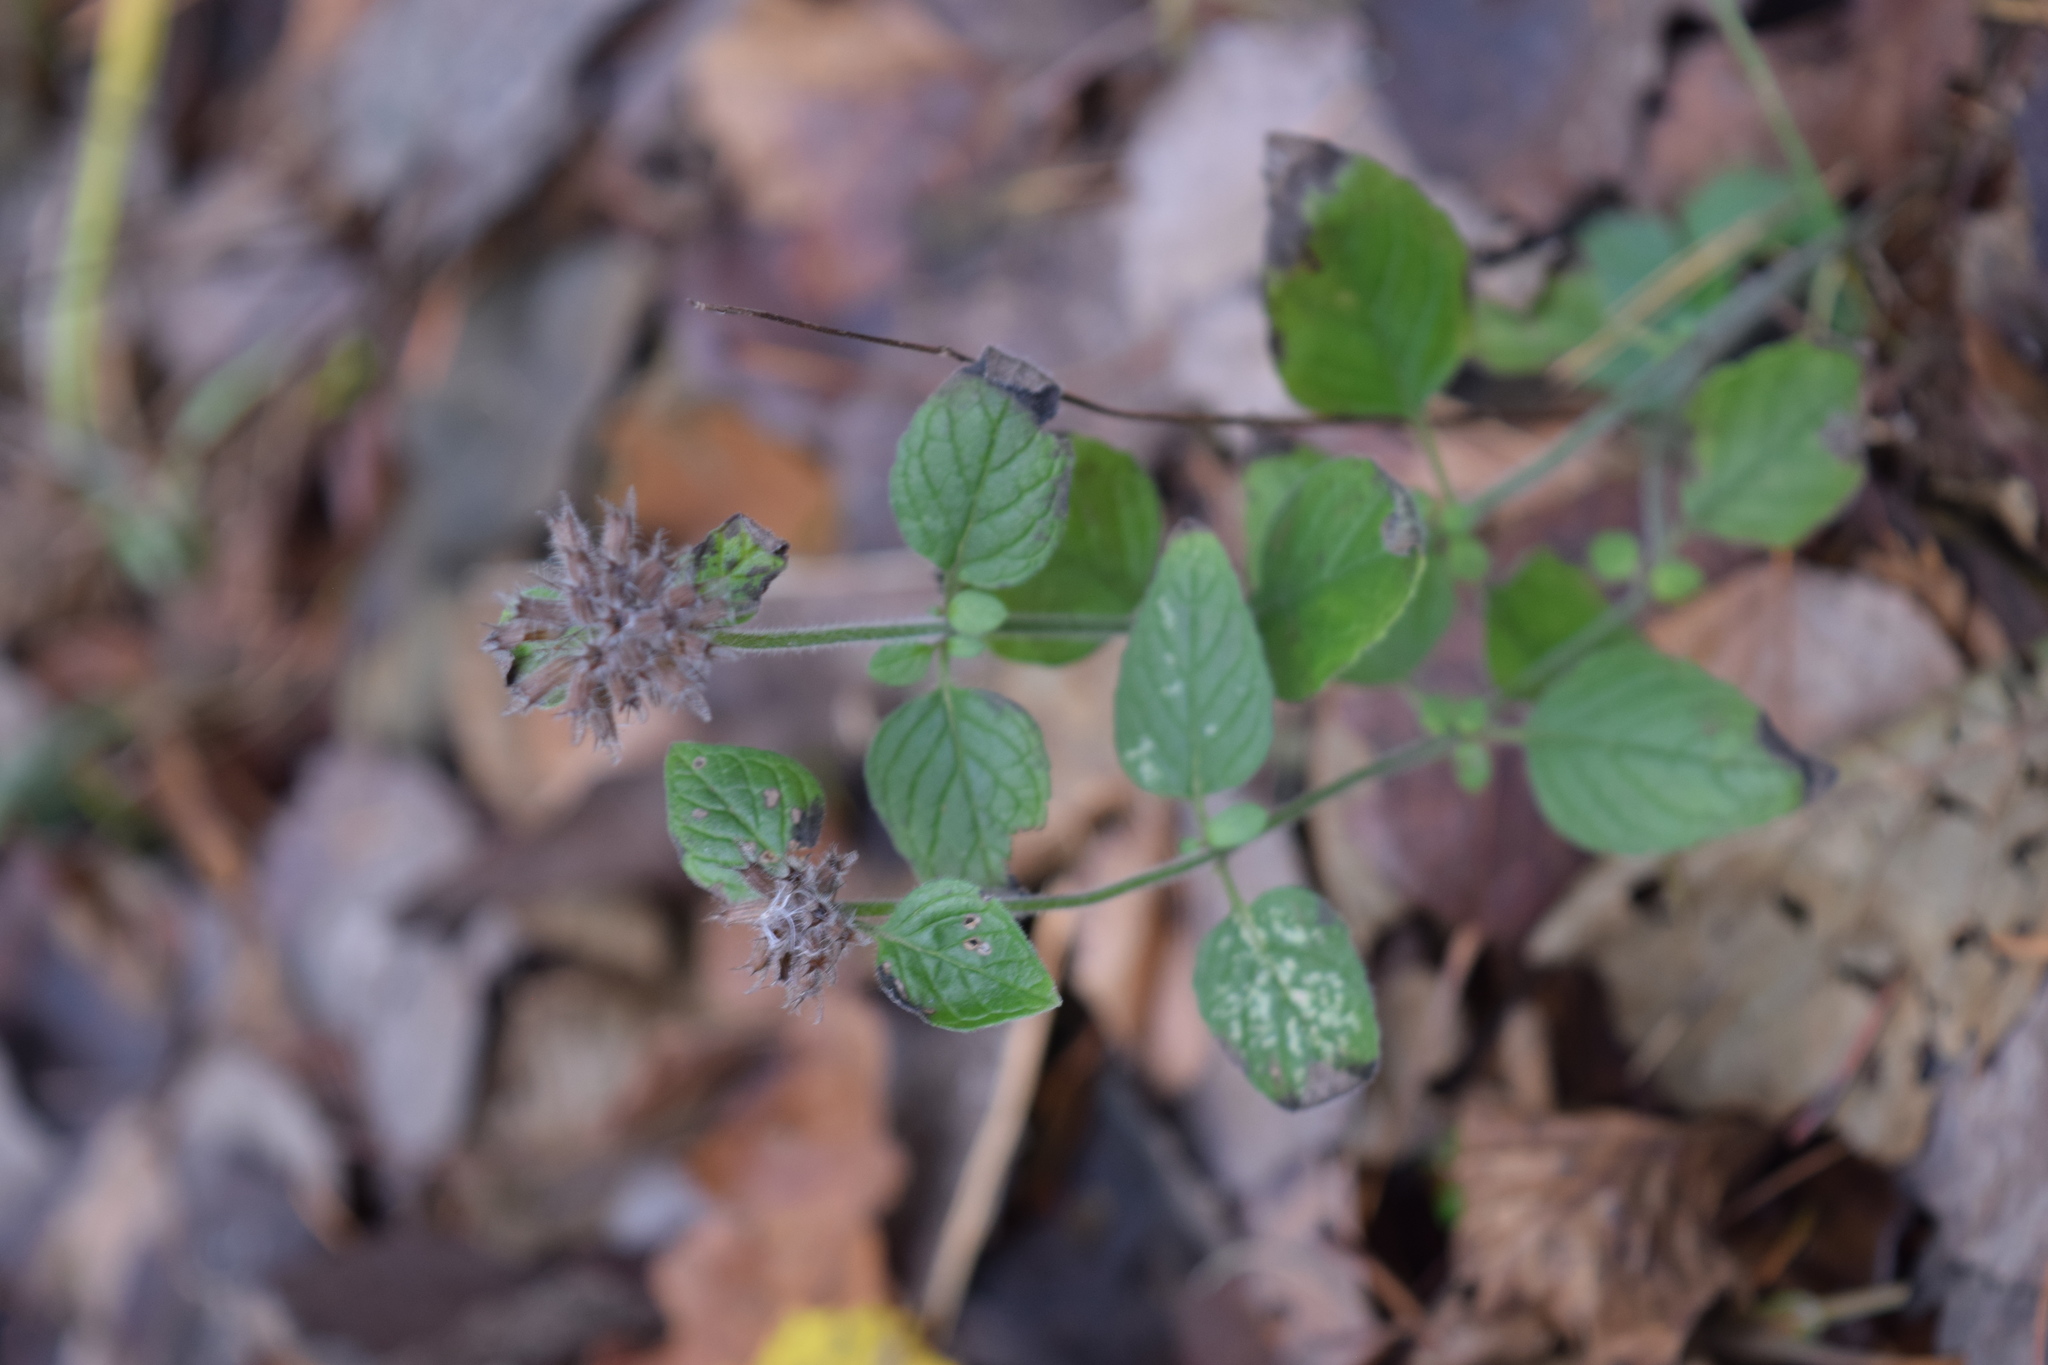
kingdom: Plantae
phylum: Tracheophyta
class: Magnoliopsida
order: Lamiales
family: Lamiaceae
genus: Clinopodium
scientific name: Clinopodium vulgare
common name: Wild basil
